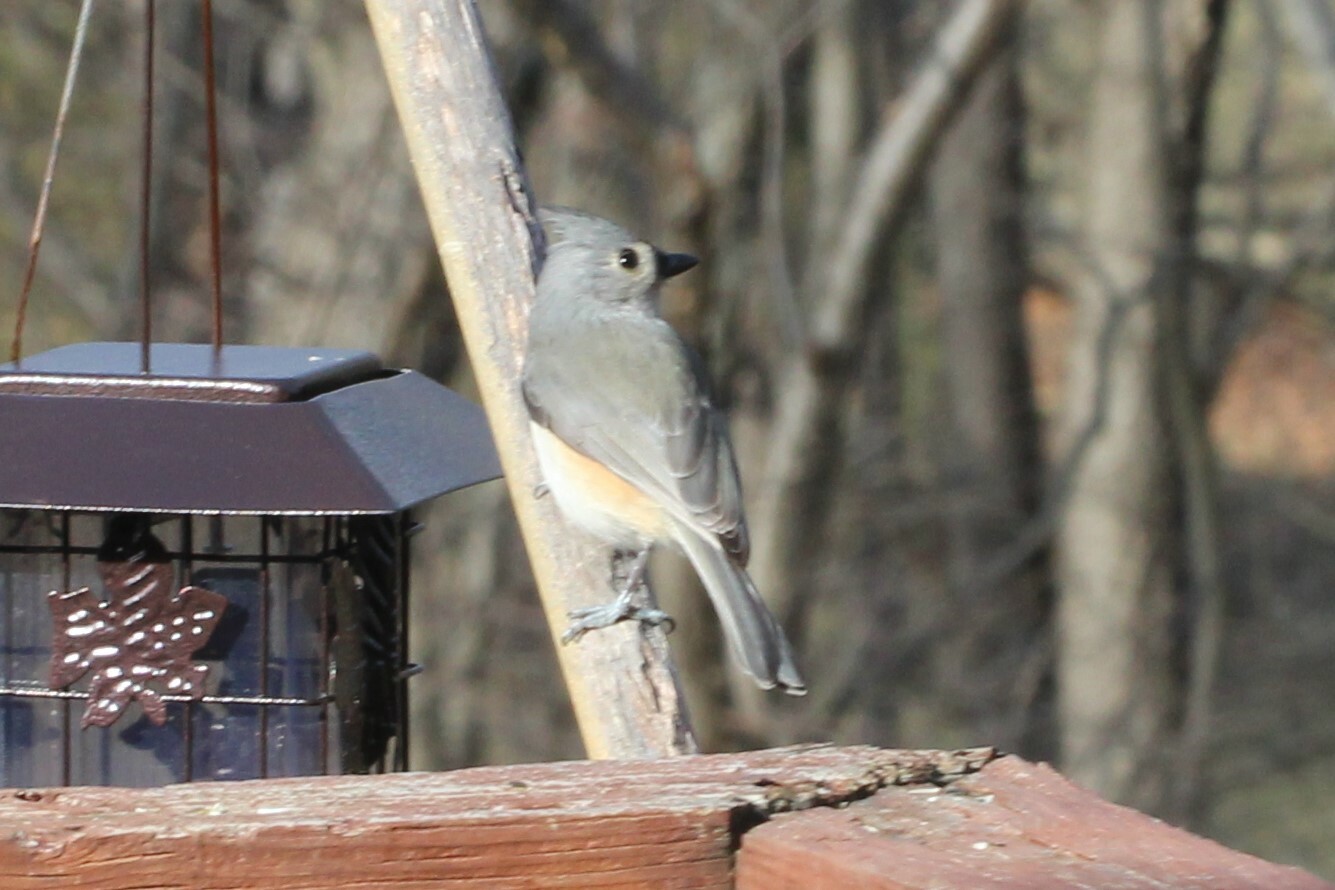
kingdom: Animalia
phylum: Chordata
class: Aves
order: Passeriformes
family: Paridae
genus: Baeolophus
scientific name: Baeolophus bicolor
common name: Tufted titmouse
